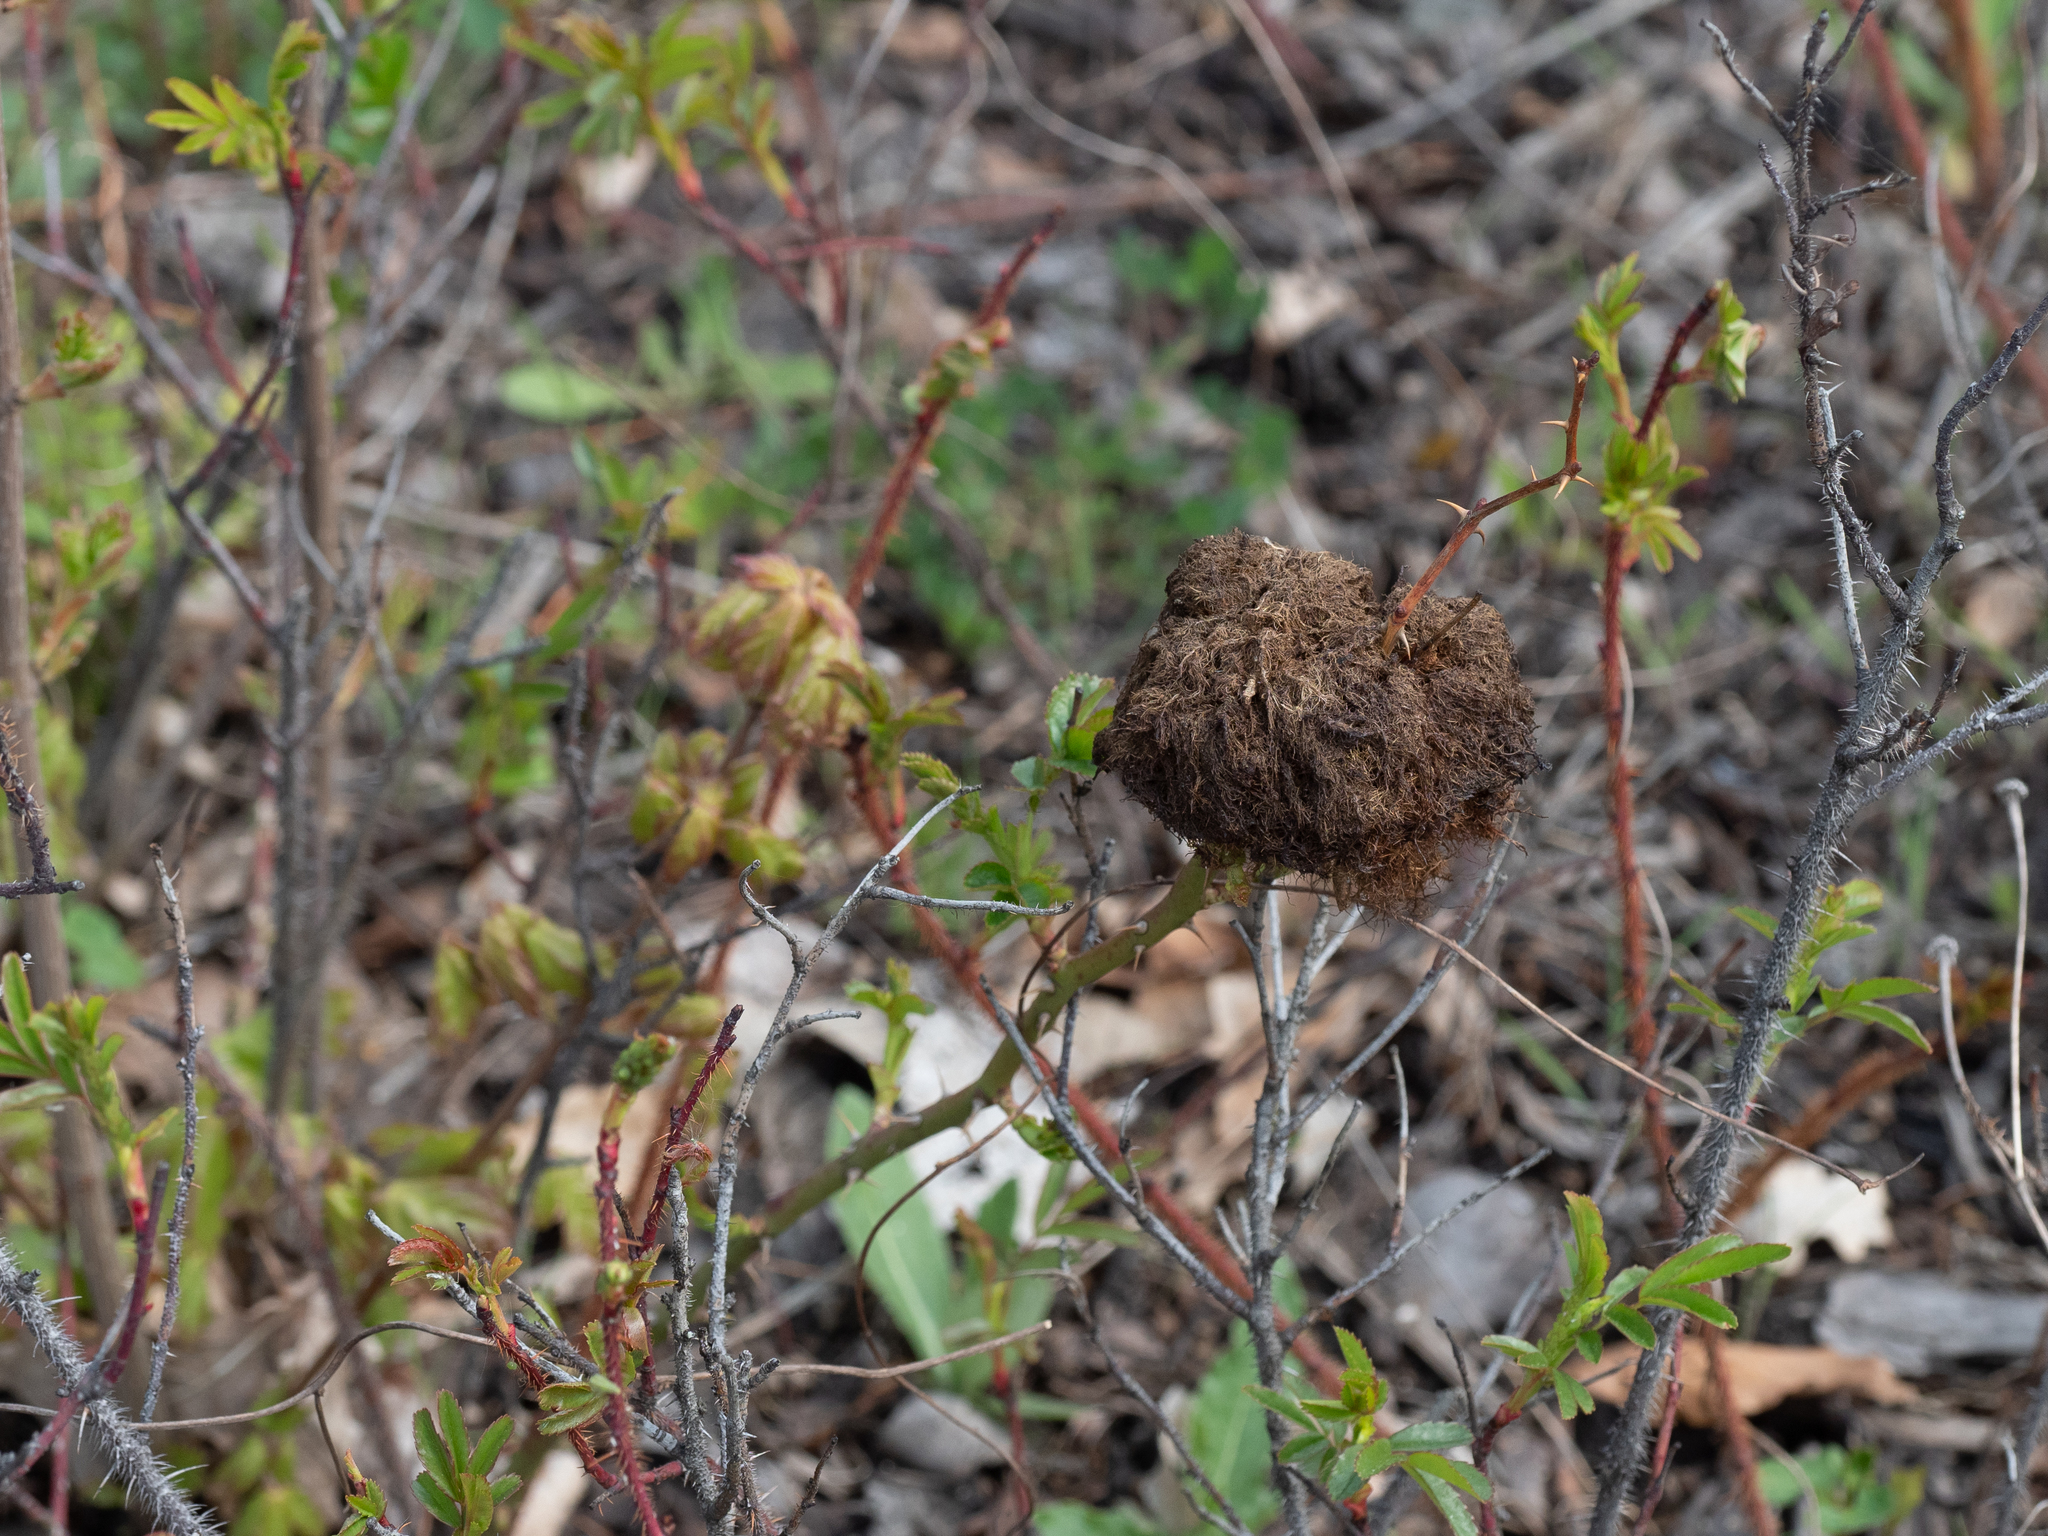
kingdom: Animalia
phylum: Arthropoda
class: Insecta
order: Hymenoptera
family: Cynipidae
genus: Diplolepis
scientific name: Diplolepis rosae
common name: Bedeguar gall
